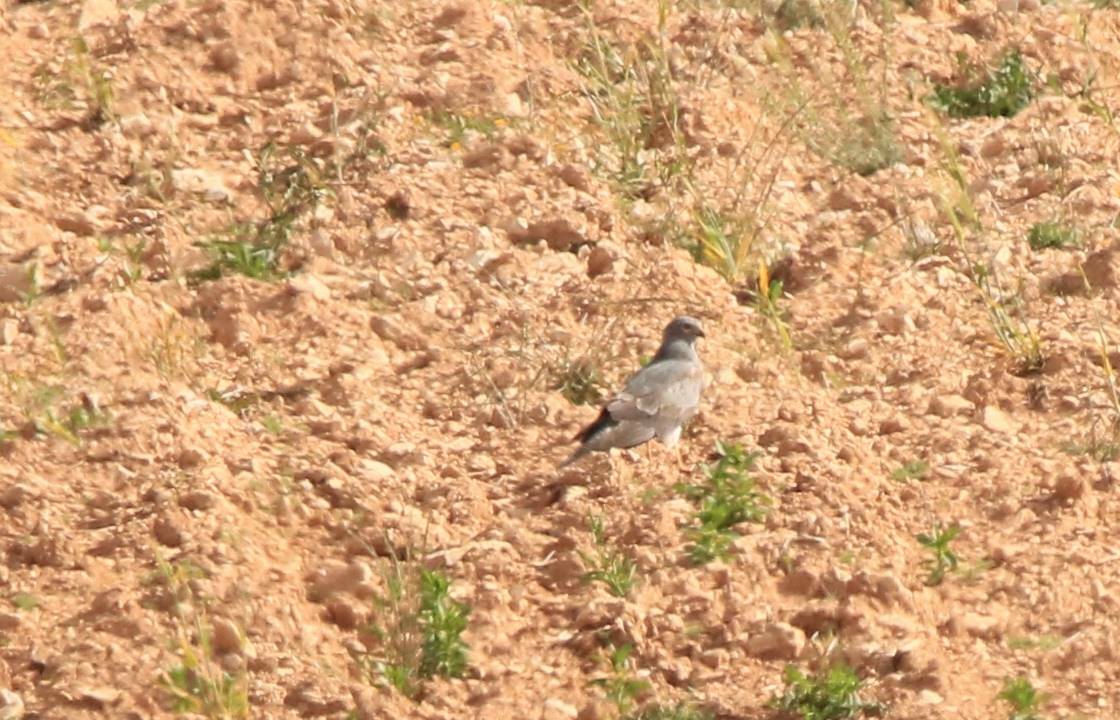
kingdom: Animalia
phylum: Chordata
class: Aves
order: Accipitriformes
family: Accipitridae
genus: Circus
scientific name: Circus pygargus
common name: Montagu's harrier
